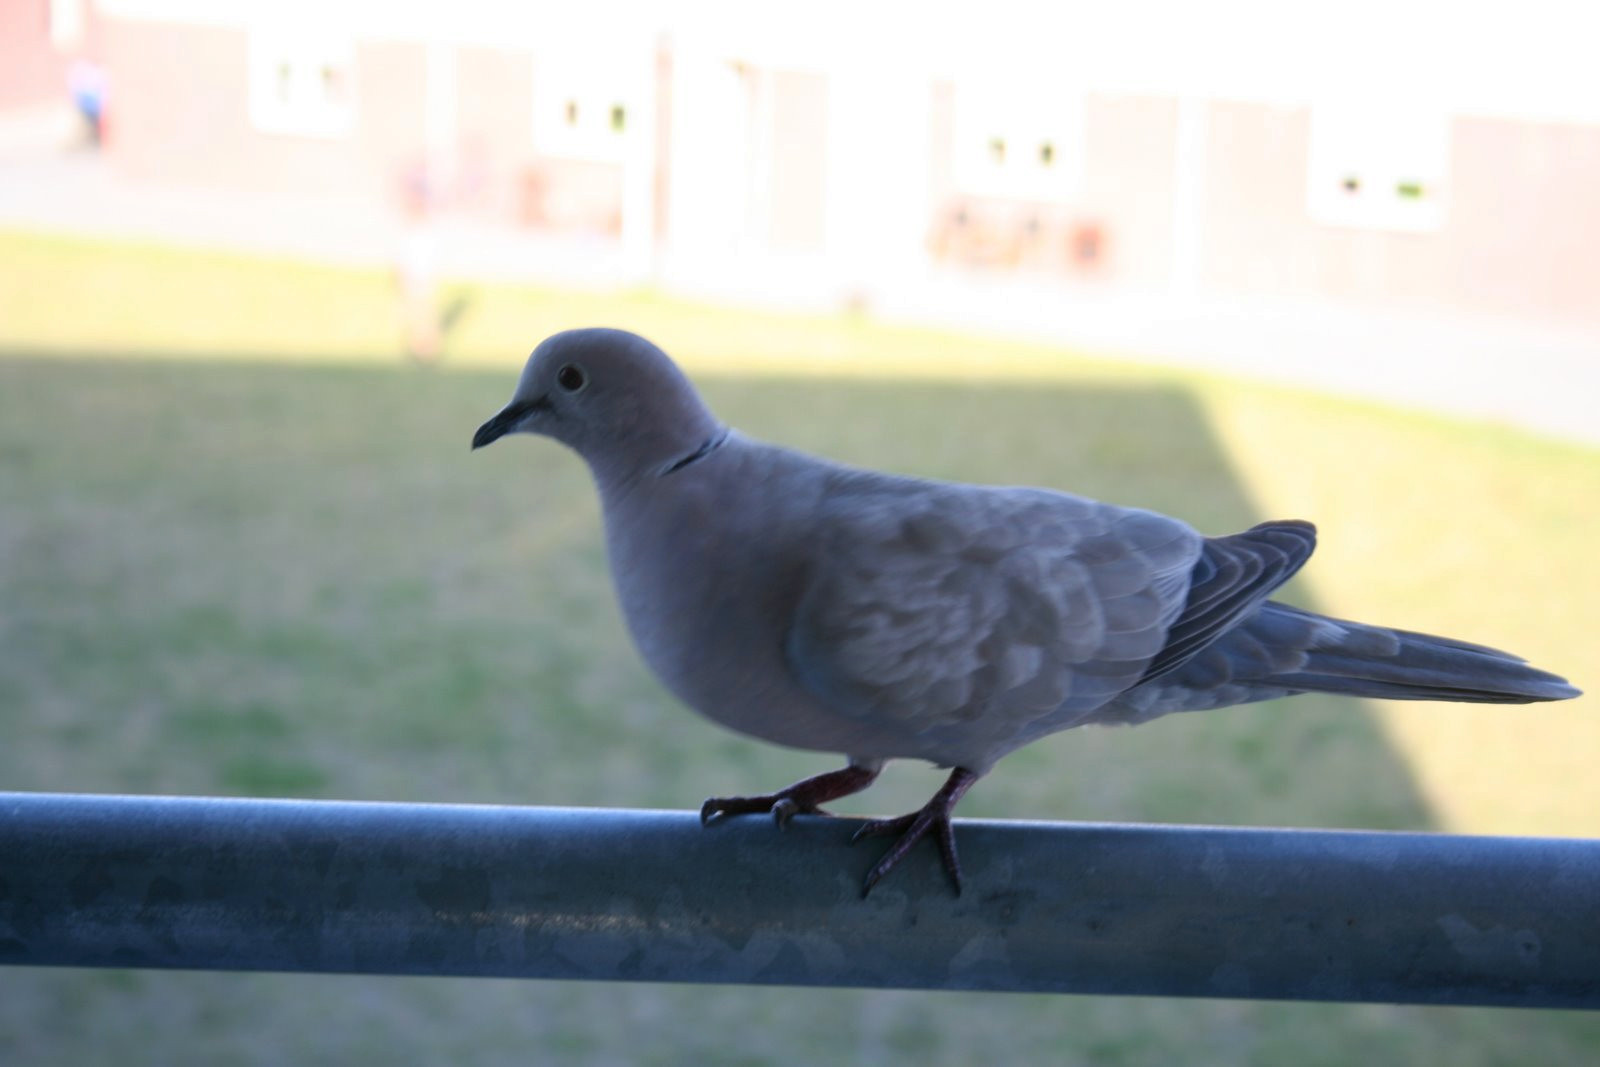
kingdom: Animalia
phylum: Chordata
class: Aves
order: Columbiformes
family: Columbidae
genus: Streptopelia
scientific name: Streptopelia decaocto
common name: Eurasian collared dove
